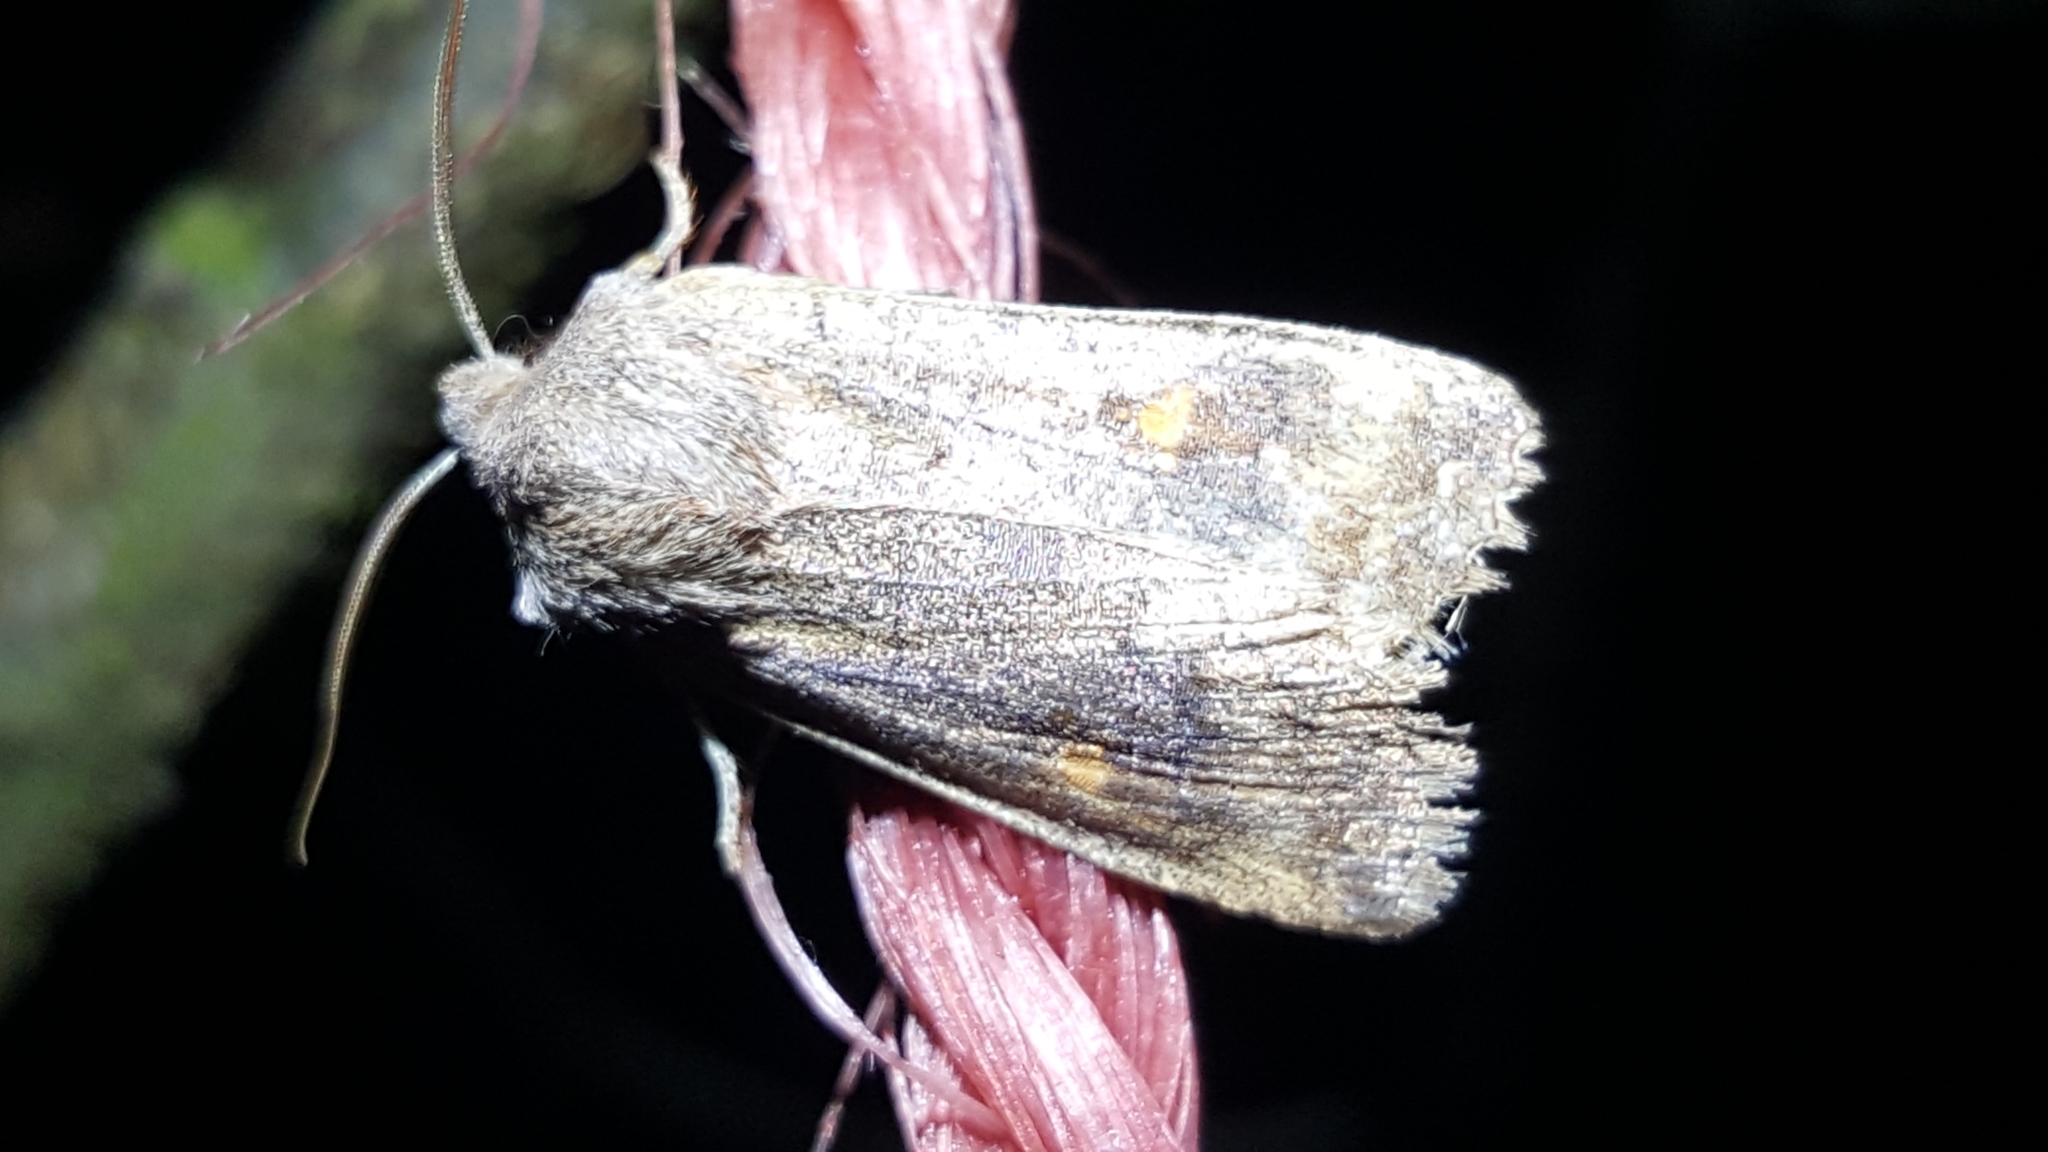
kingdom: Animalia
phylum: Arthropoda
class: Insecta
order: Lepidoptera
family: Noctuidae
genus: Eupsilia
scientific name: Eupsilia transversa
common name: Satellite
